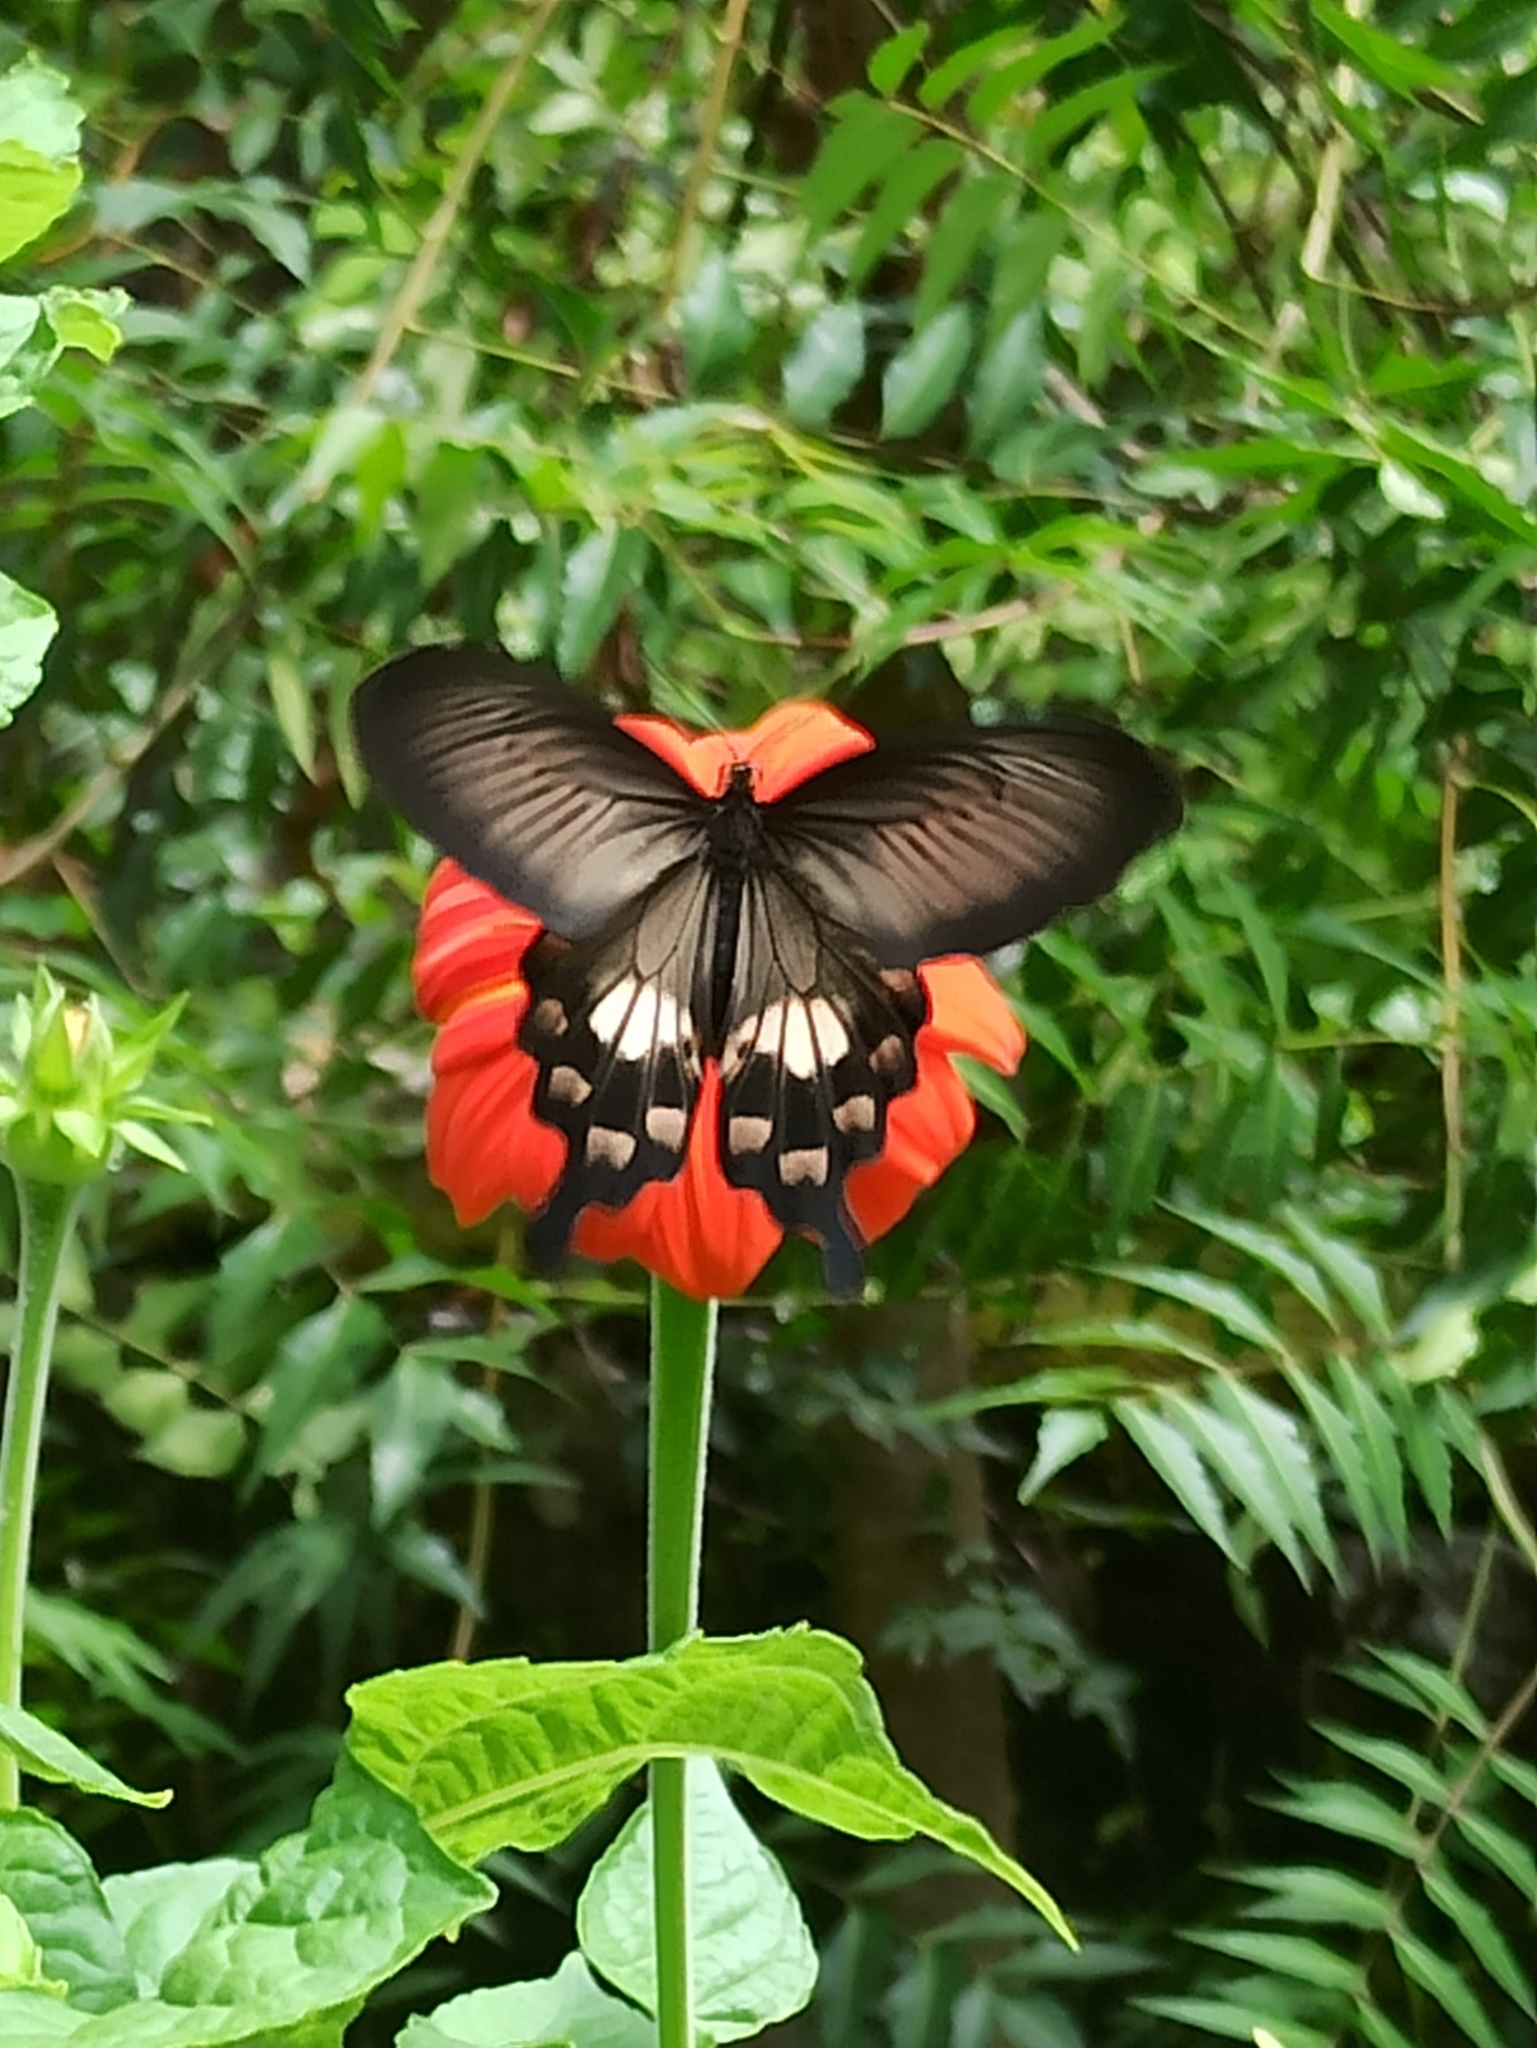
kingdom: Animalia
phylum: Arthropoda
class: Insecta
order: Lepidoptera
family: Papilionidae
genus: Pachliopta
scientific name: Pachliopta aristolochiae
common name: Common rose
